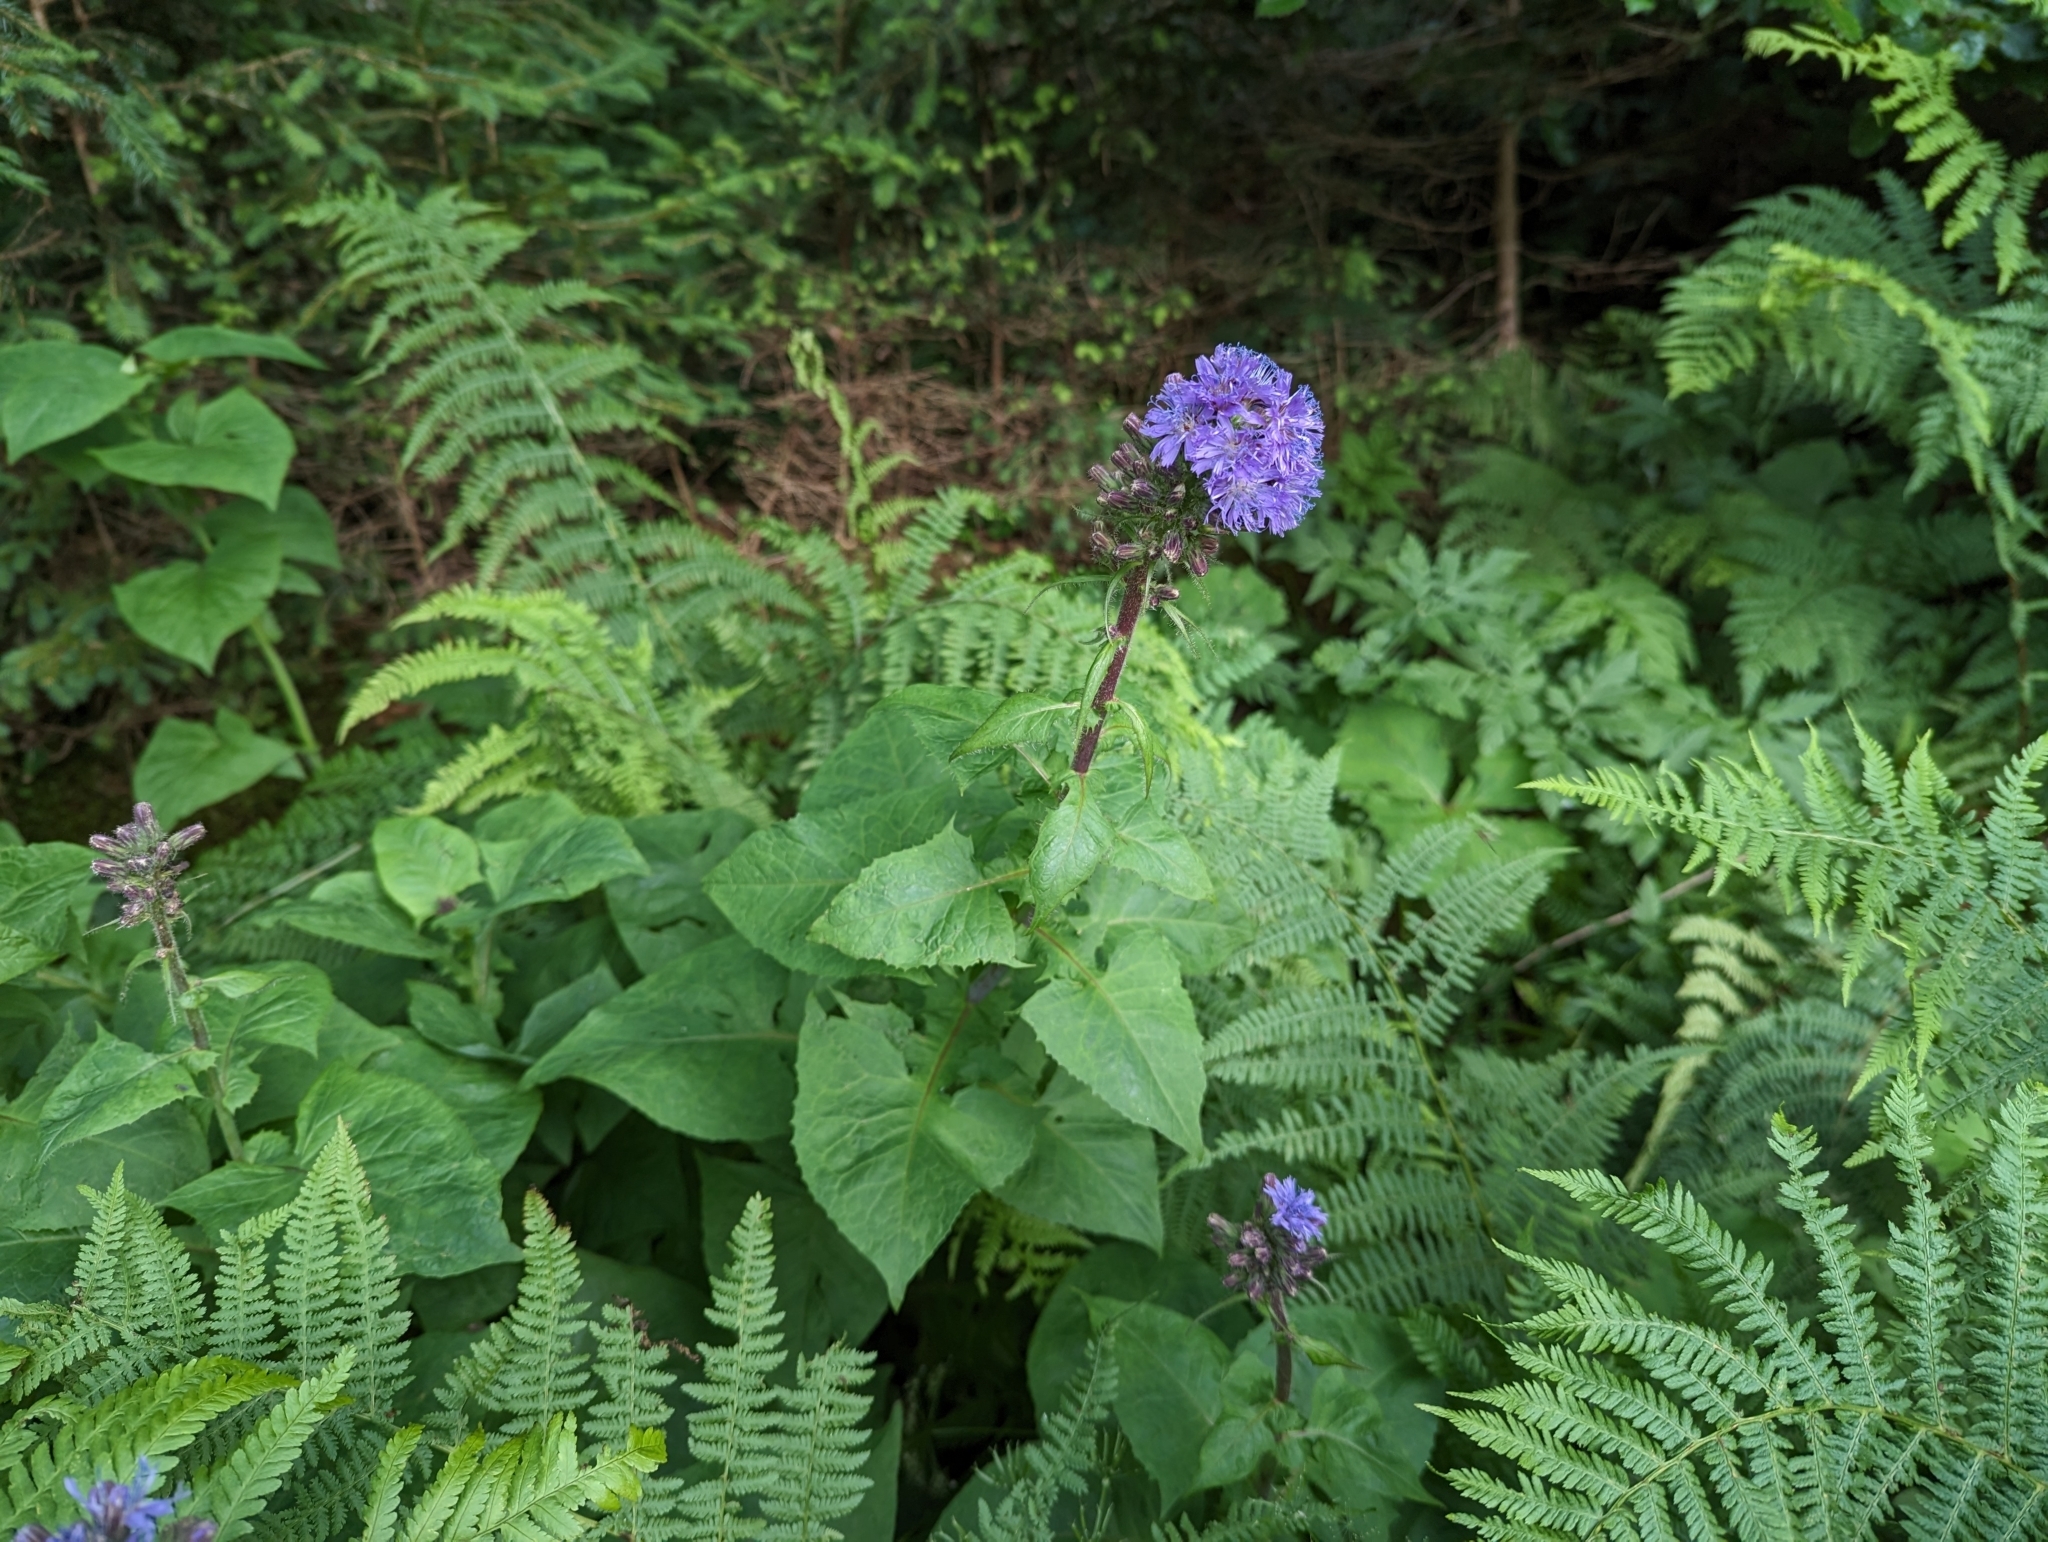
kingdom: Plantae
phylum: Tracheophyta
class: Magnoliopsida
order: Asterales
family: Asteraceae
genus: Cicerbita
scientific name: Cicerbita alpina
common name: Alpine blue-sow-thistle
